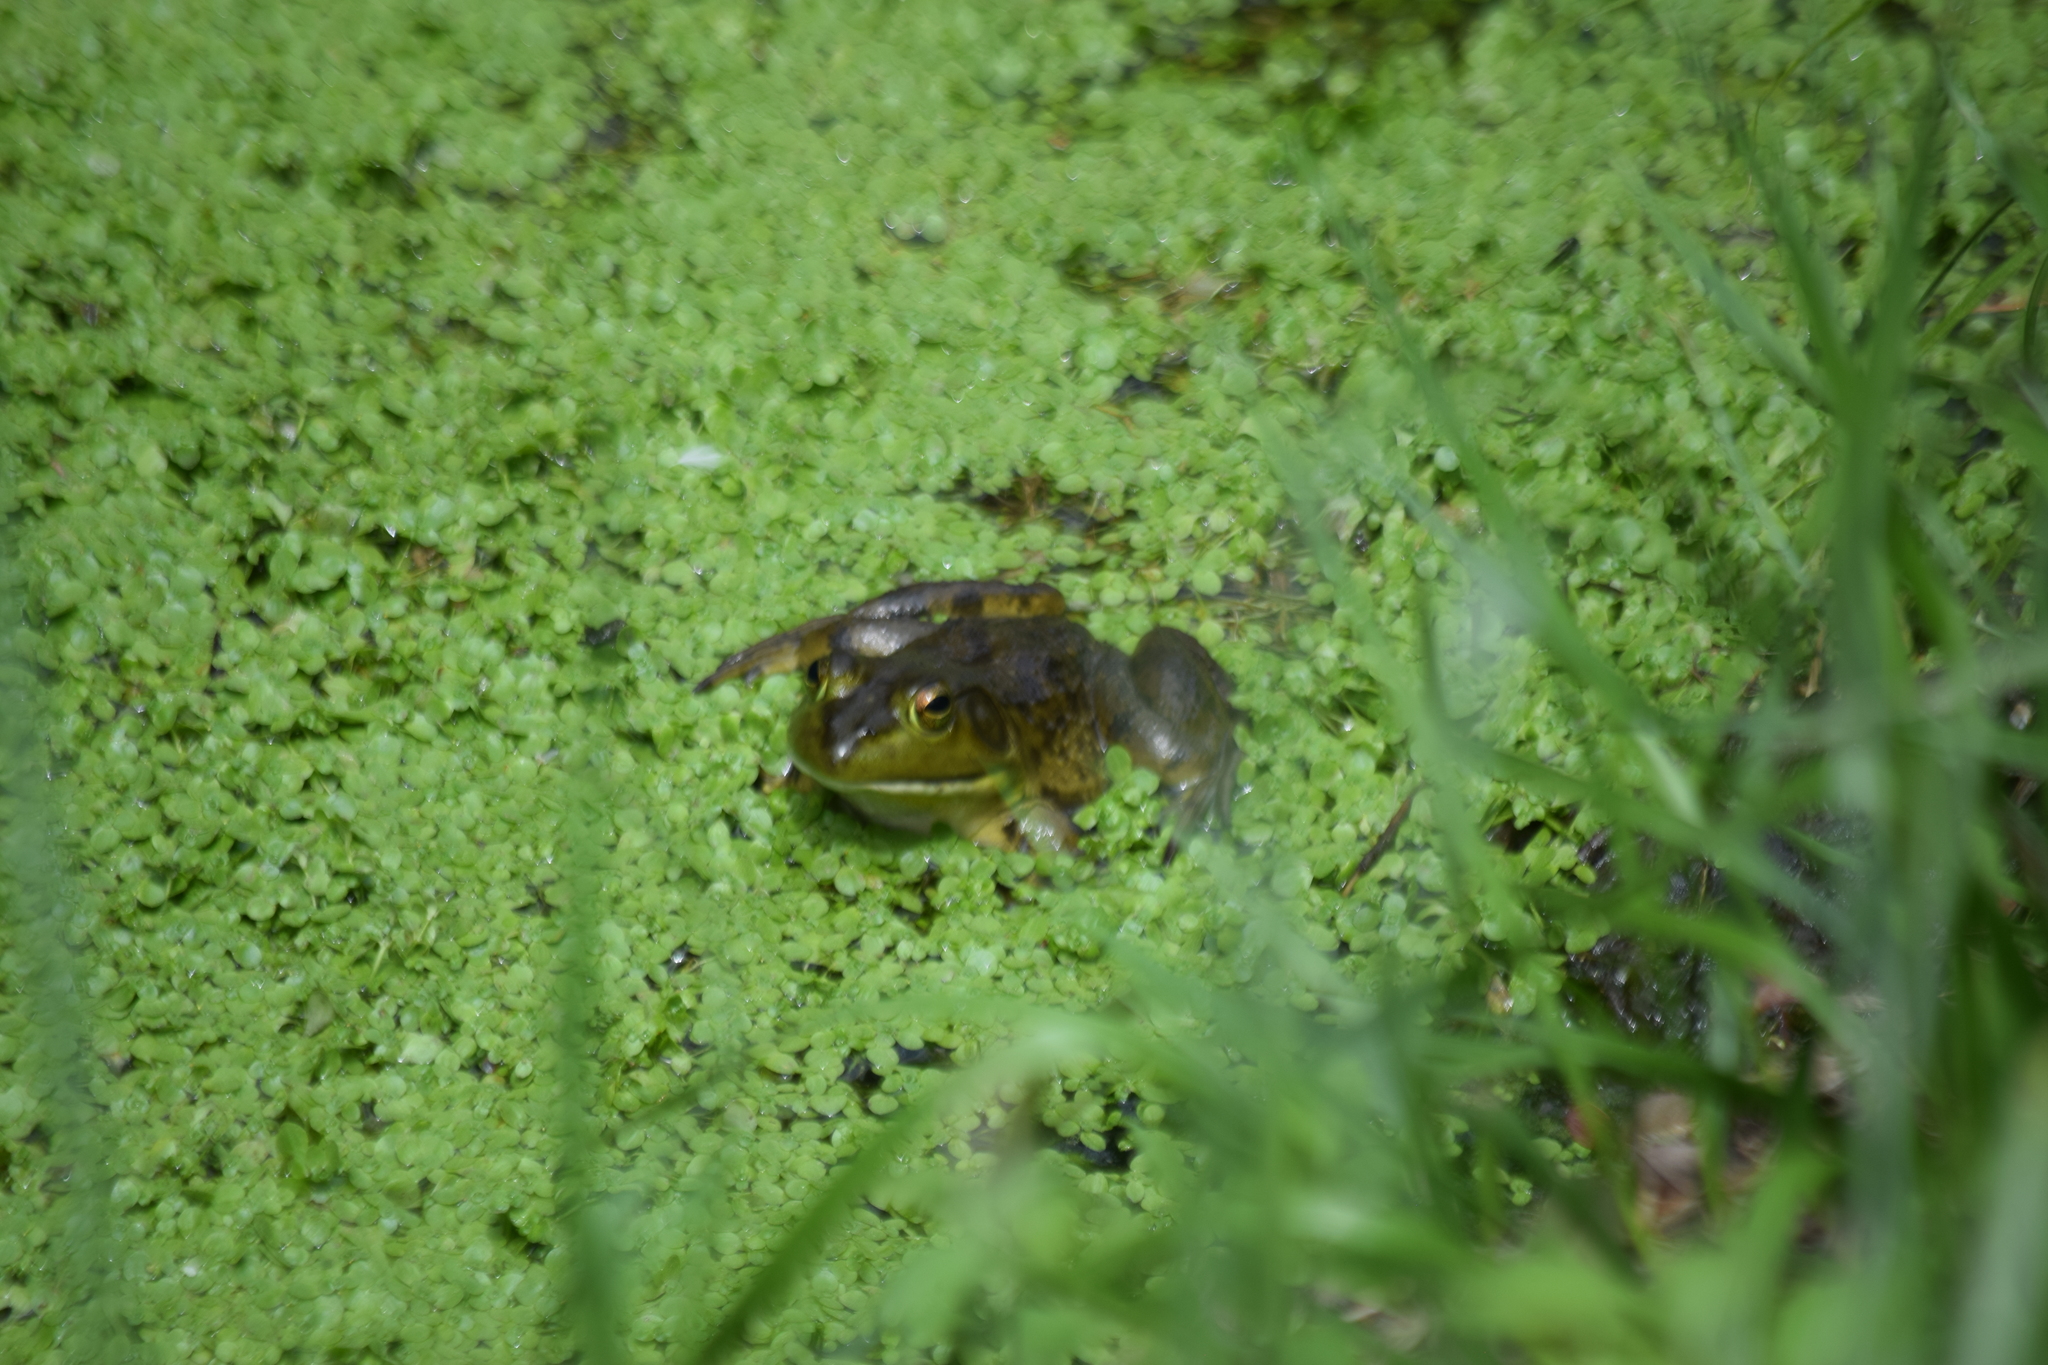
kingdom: Animalia
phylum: Chordata
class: Amphibia
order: Anura
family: Ranidae
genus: Lithobates
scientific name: Lithobates catesbeianus
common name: American bullfrog
